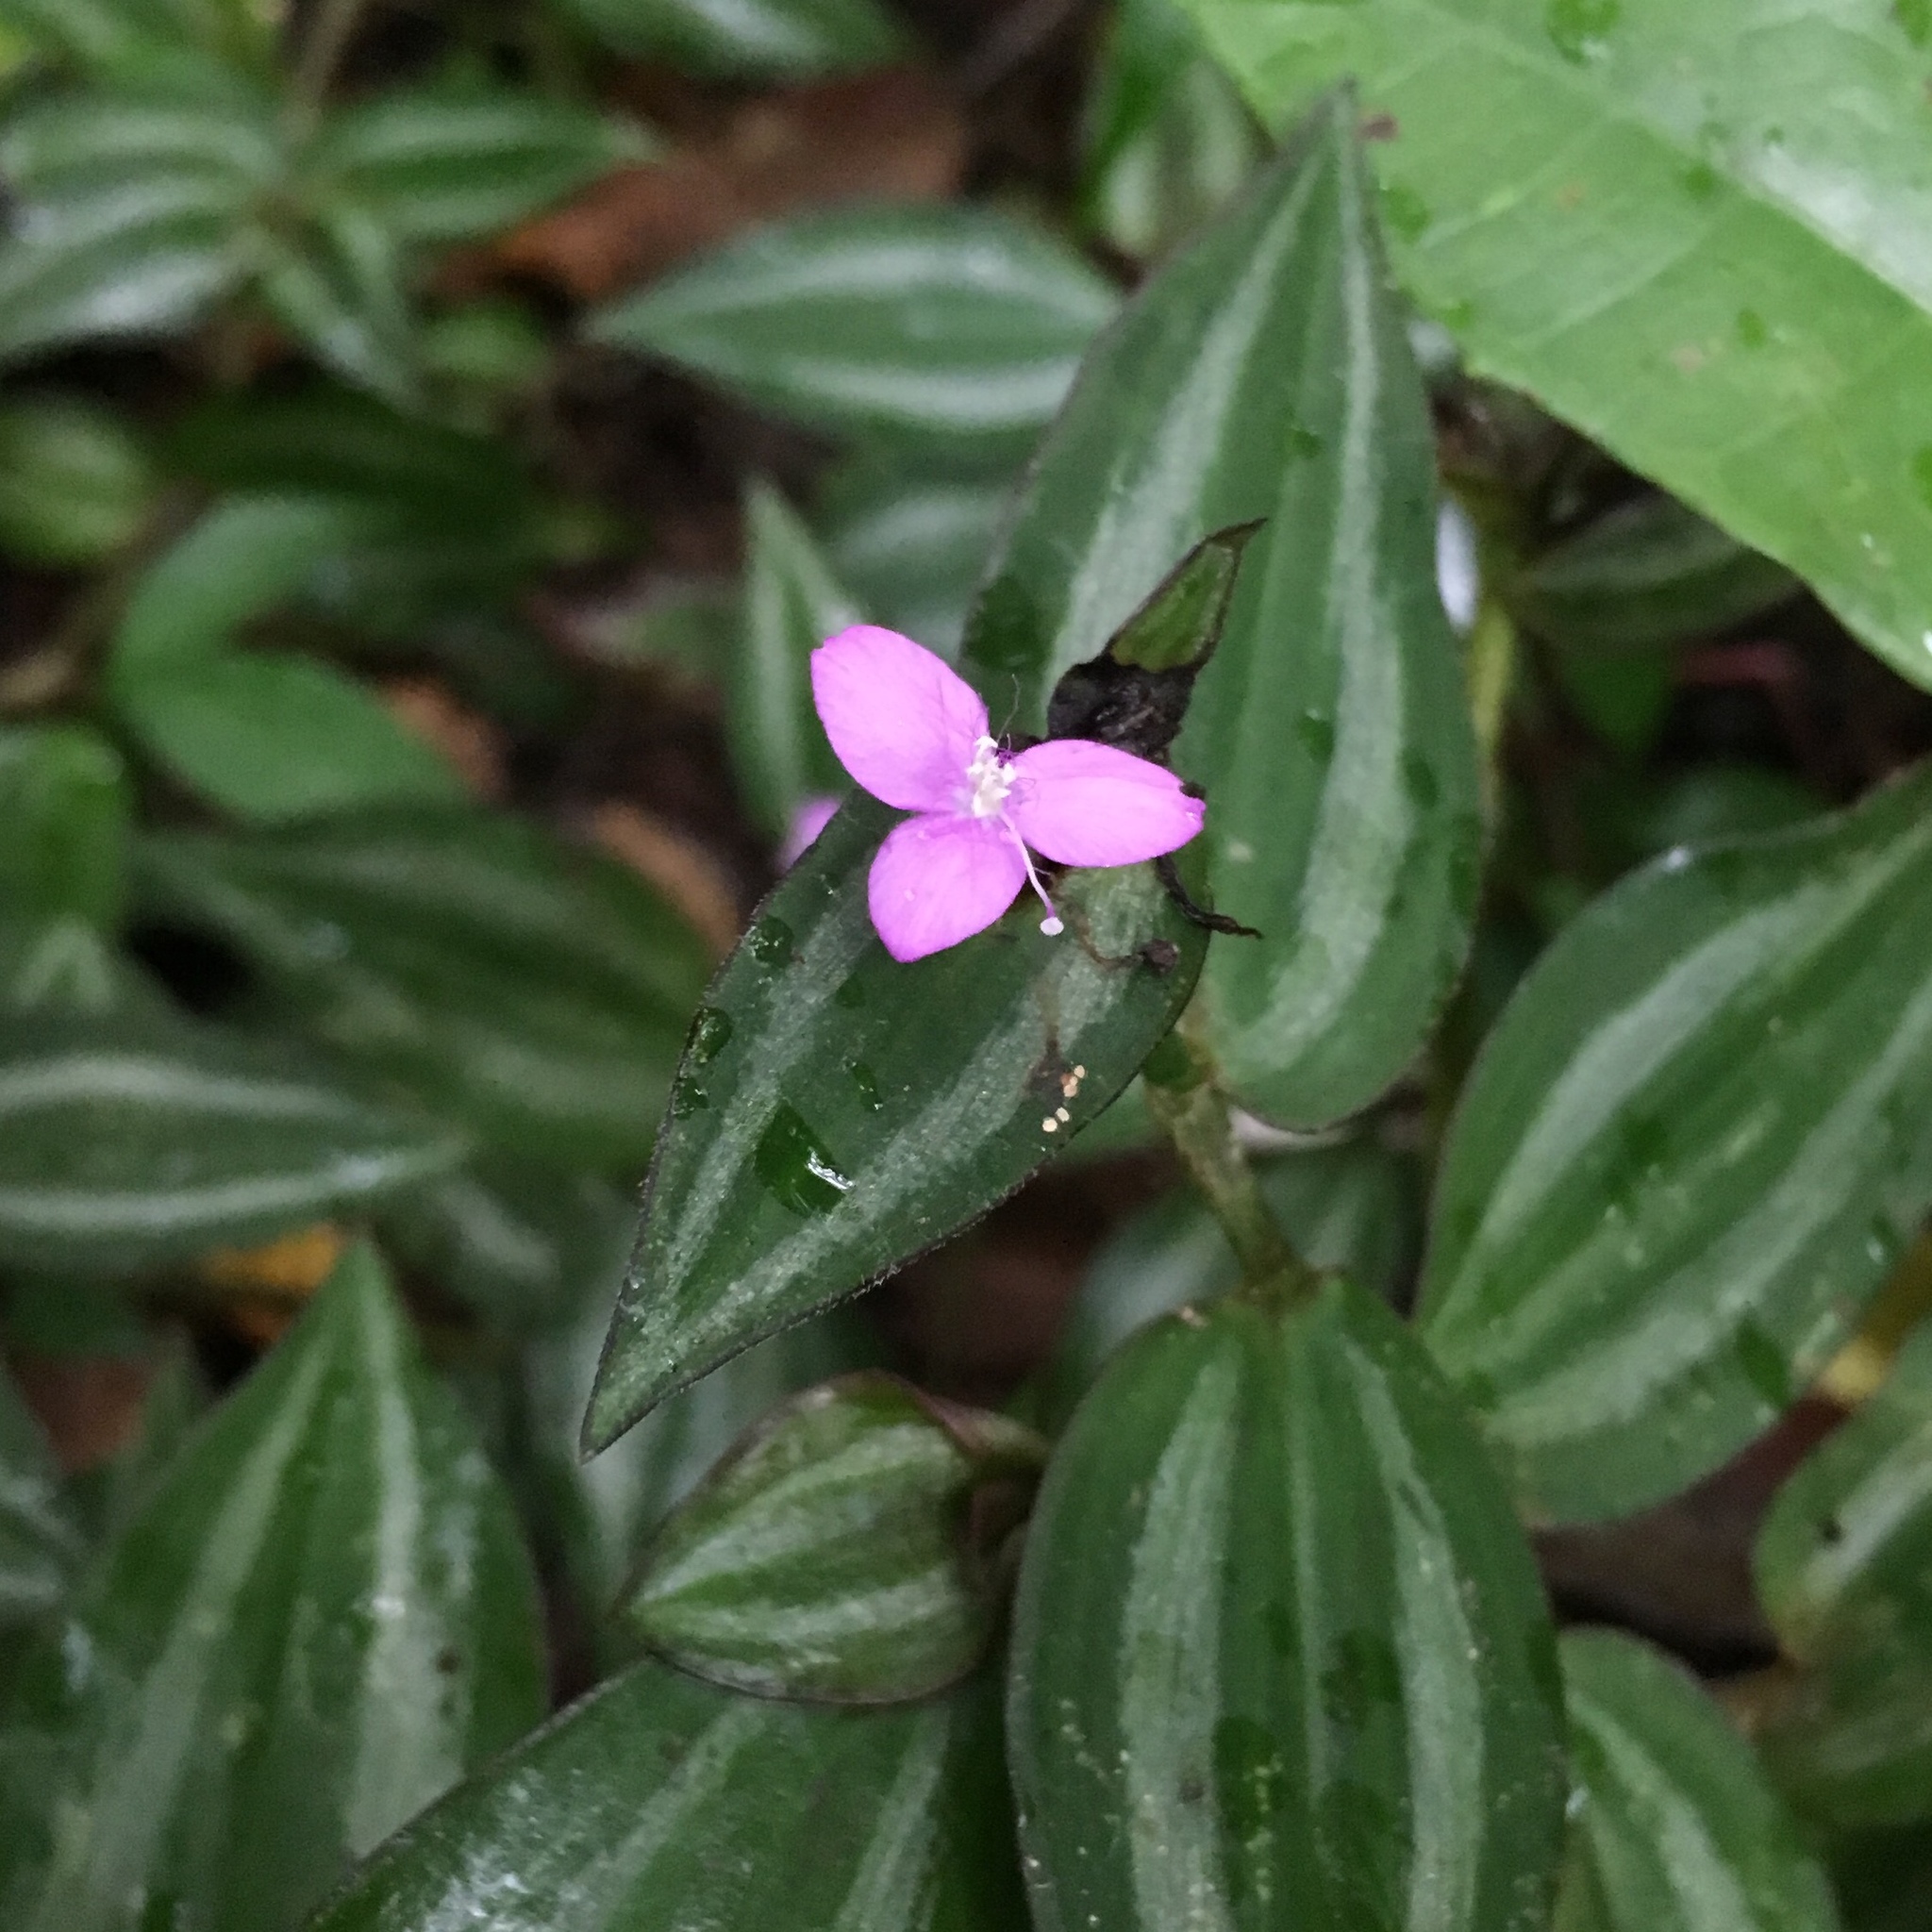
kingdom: Plantae
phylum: Tracheophyta
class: Liliopsida
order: Commelinales
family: Commelinaceae
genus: Tradescantia
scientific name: Tradescantia zebrina
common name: Inchplant
